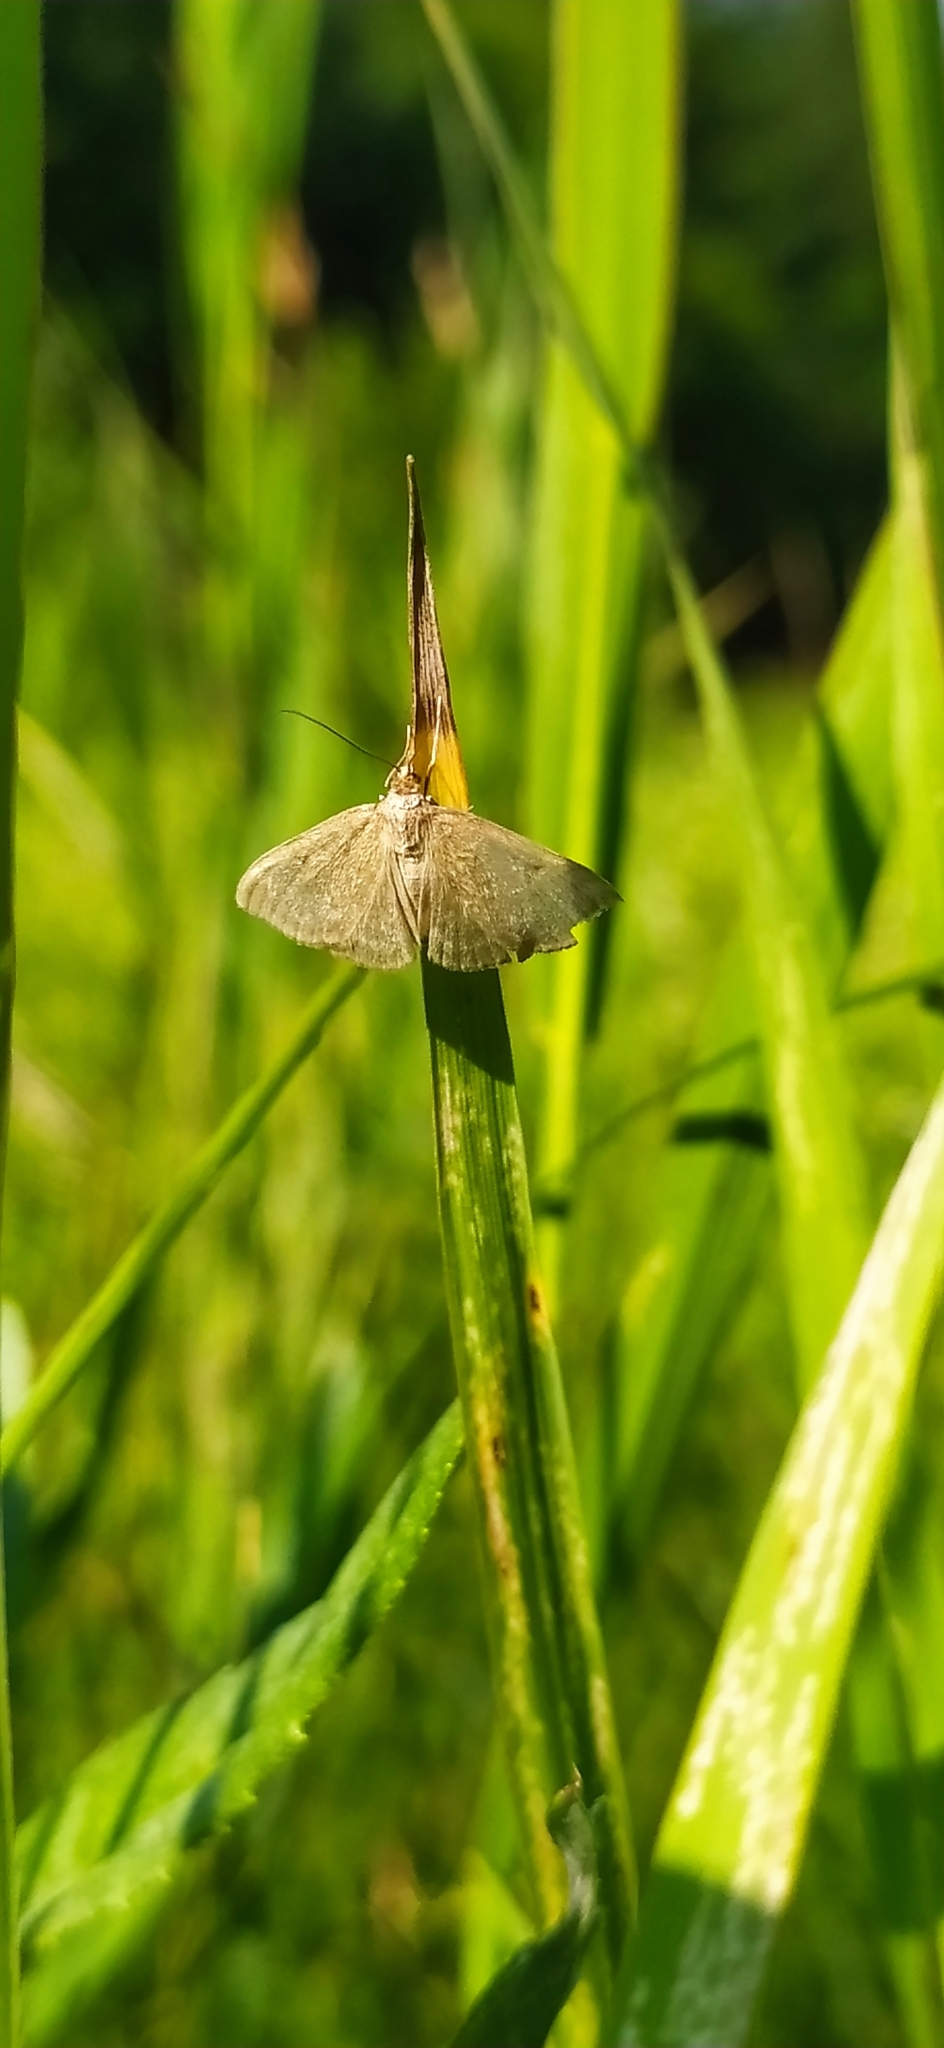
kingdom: Animalia
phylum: Arthropoda
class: Insecta
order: Lepidoptera
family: Crambidae
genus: Sitochroa
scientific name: Sitochroa verticalis
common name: Lesser pearl
